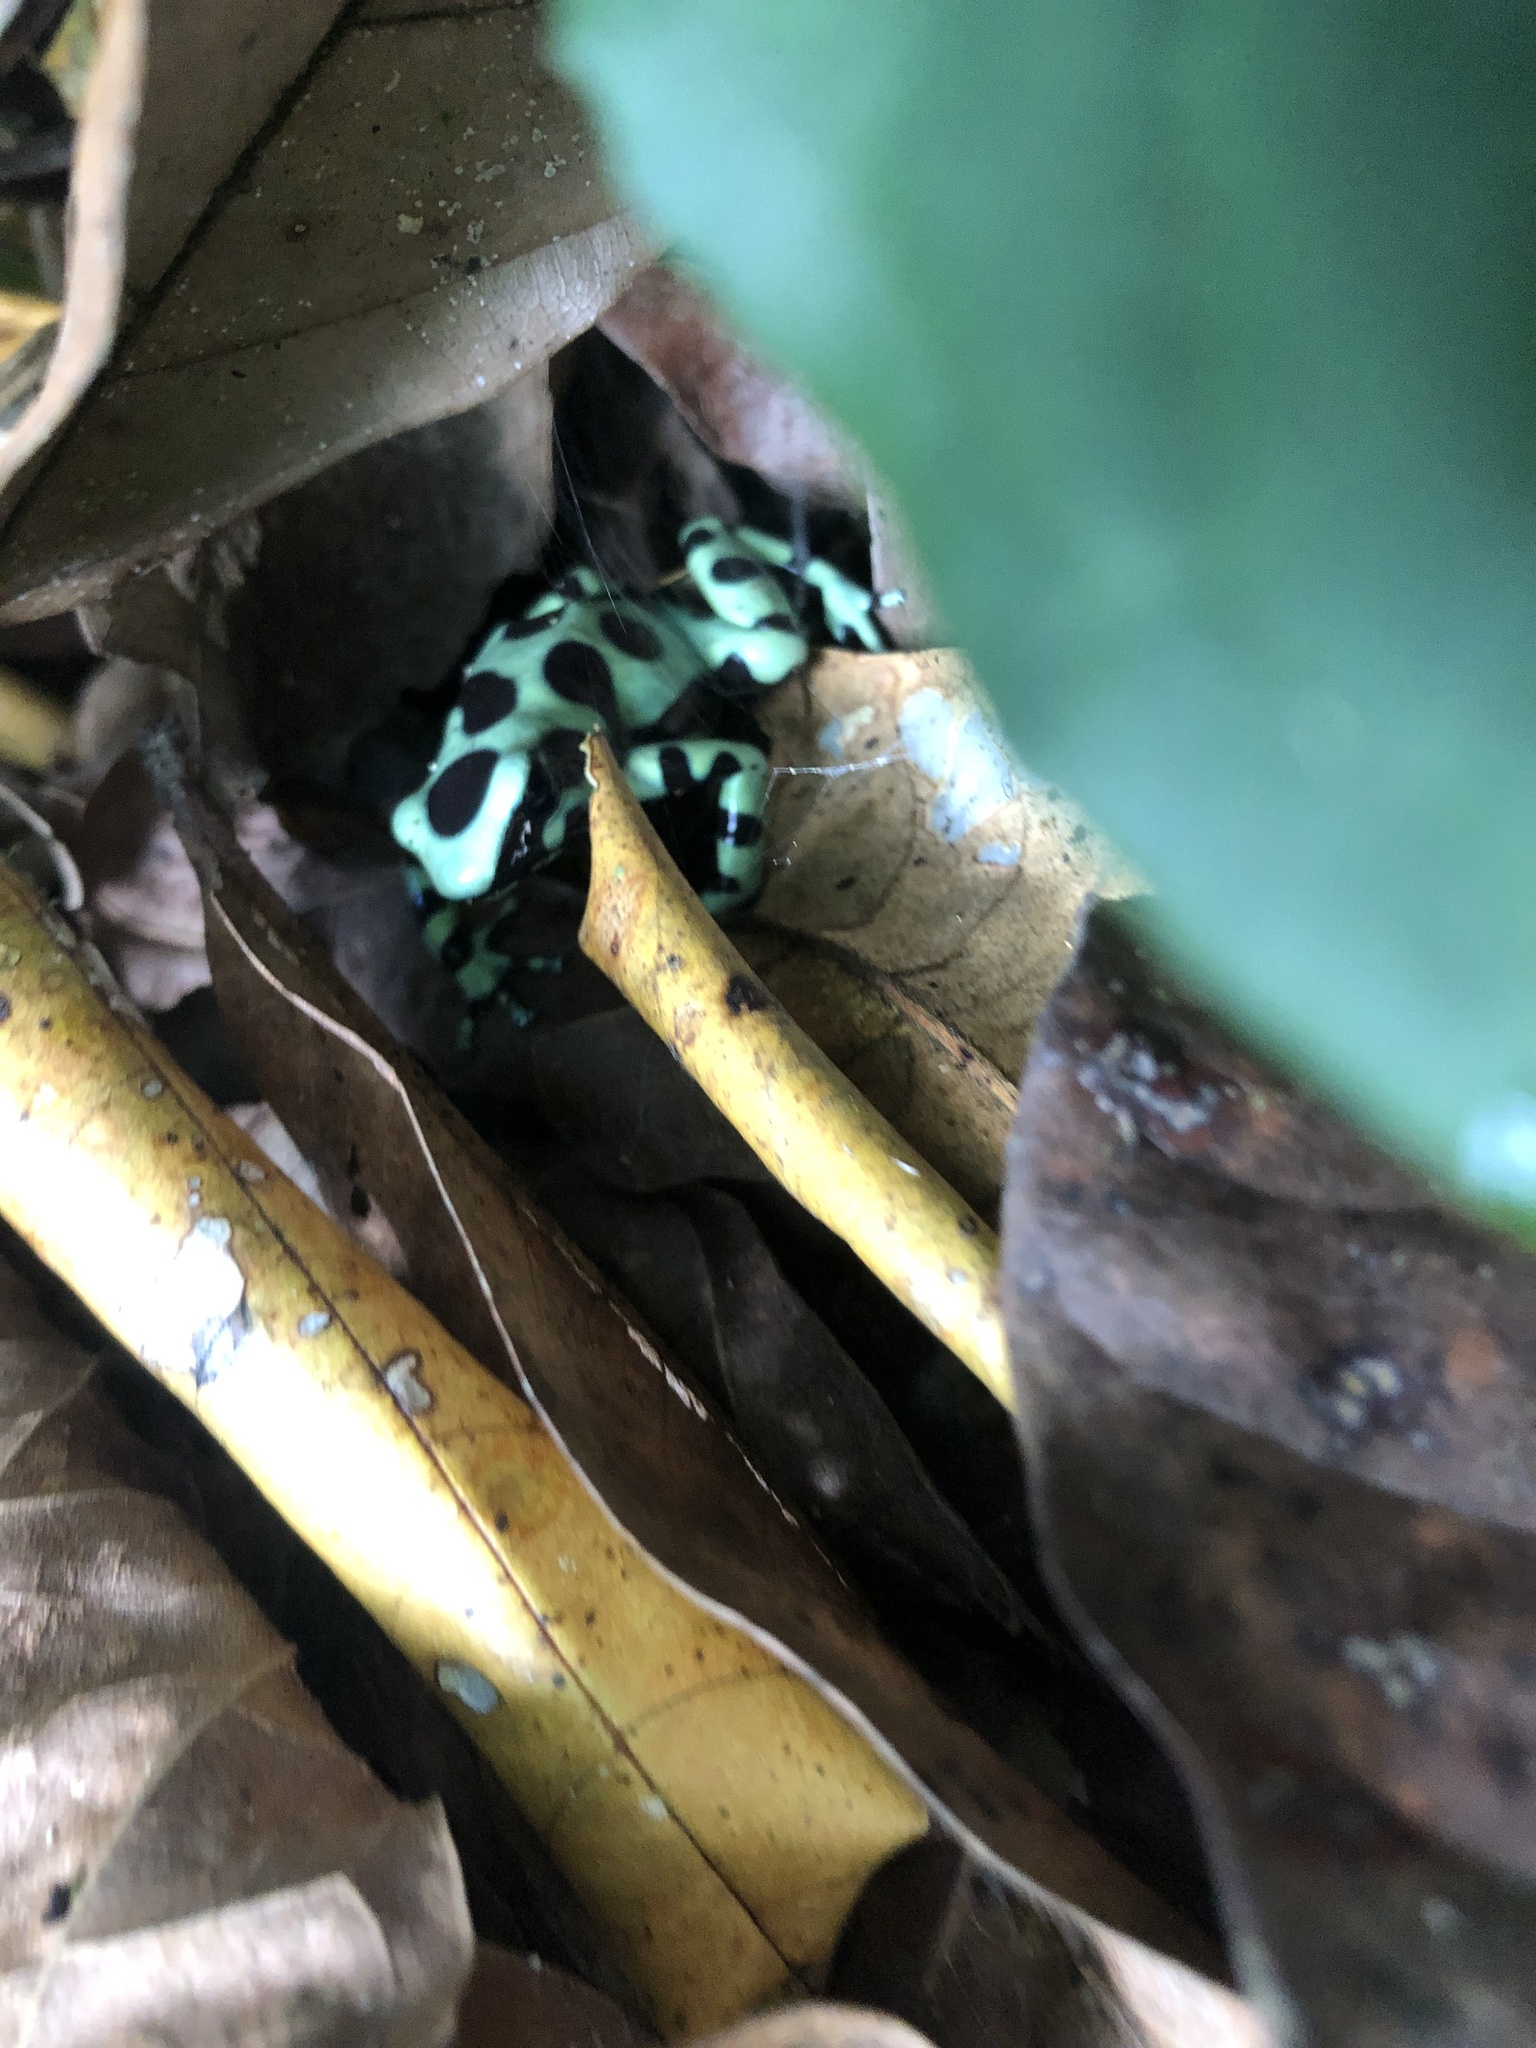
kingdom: Animalia
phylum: Chordata
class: Amphibia
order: Anura
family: Dendrobatidae
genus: Dendrobates
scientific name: Dendrobates auratus
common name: Green and black poison dart frog
